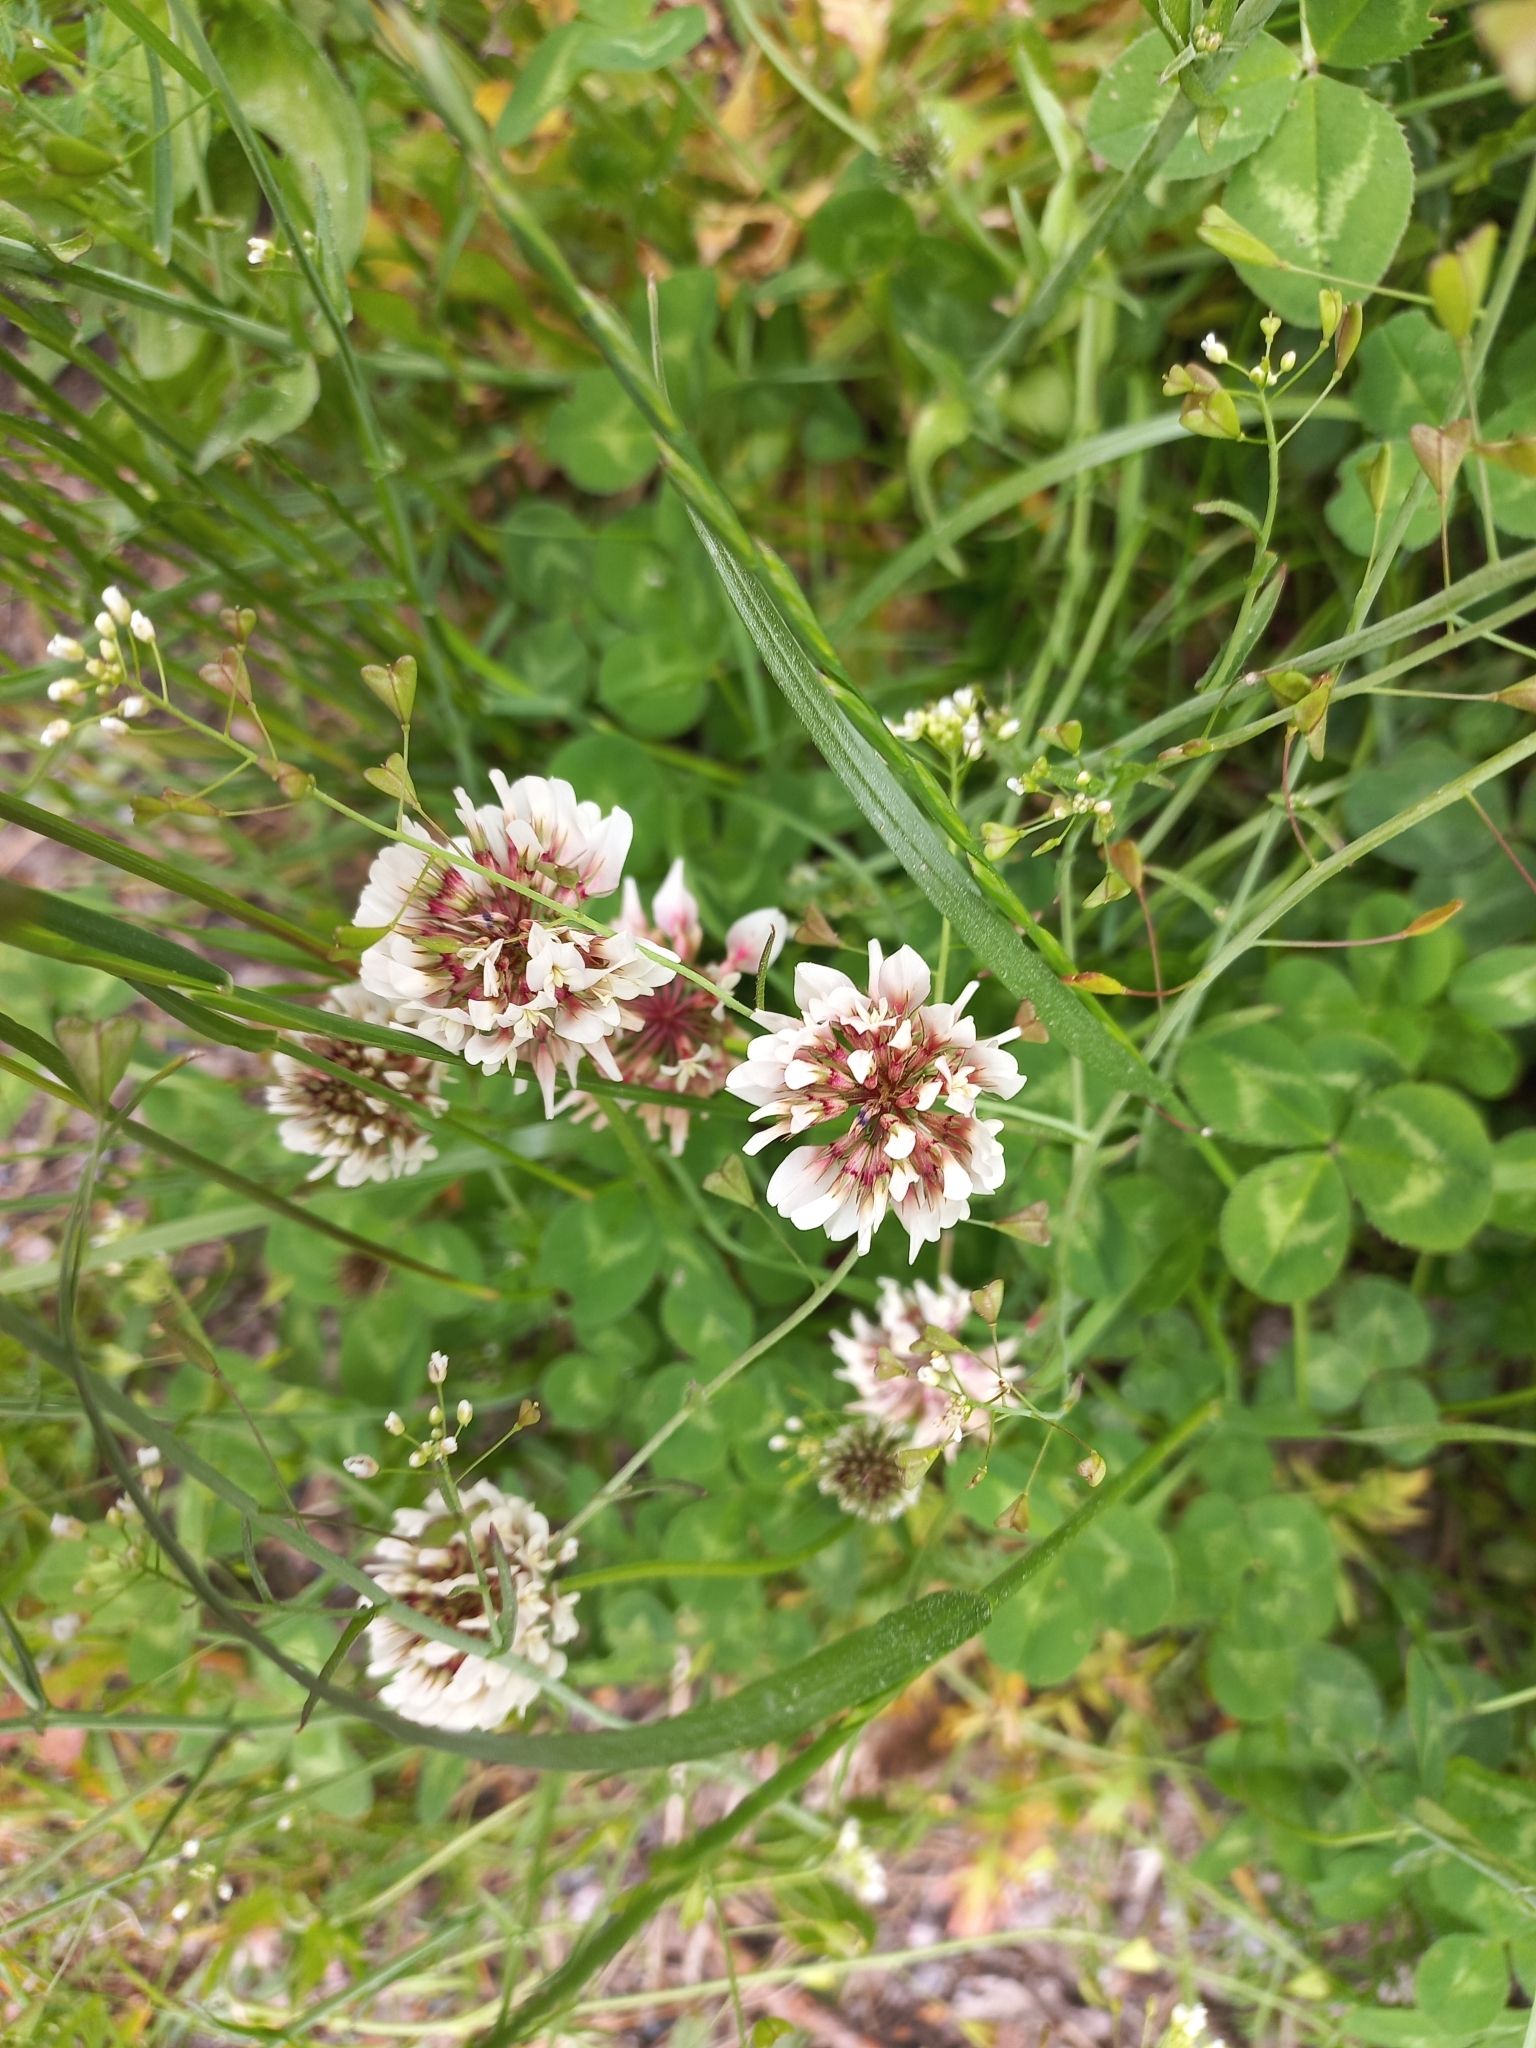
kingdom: Plantae
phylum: Tracheophyta
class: Magnoliopsida
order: Fabales
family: Fabaceae
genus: Trifolium
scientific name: Trifolium repens
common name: White clover
